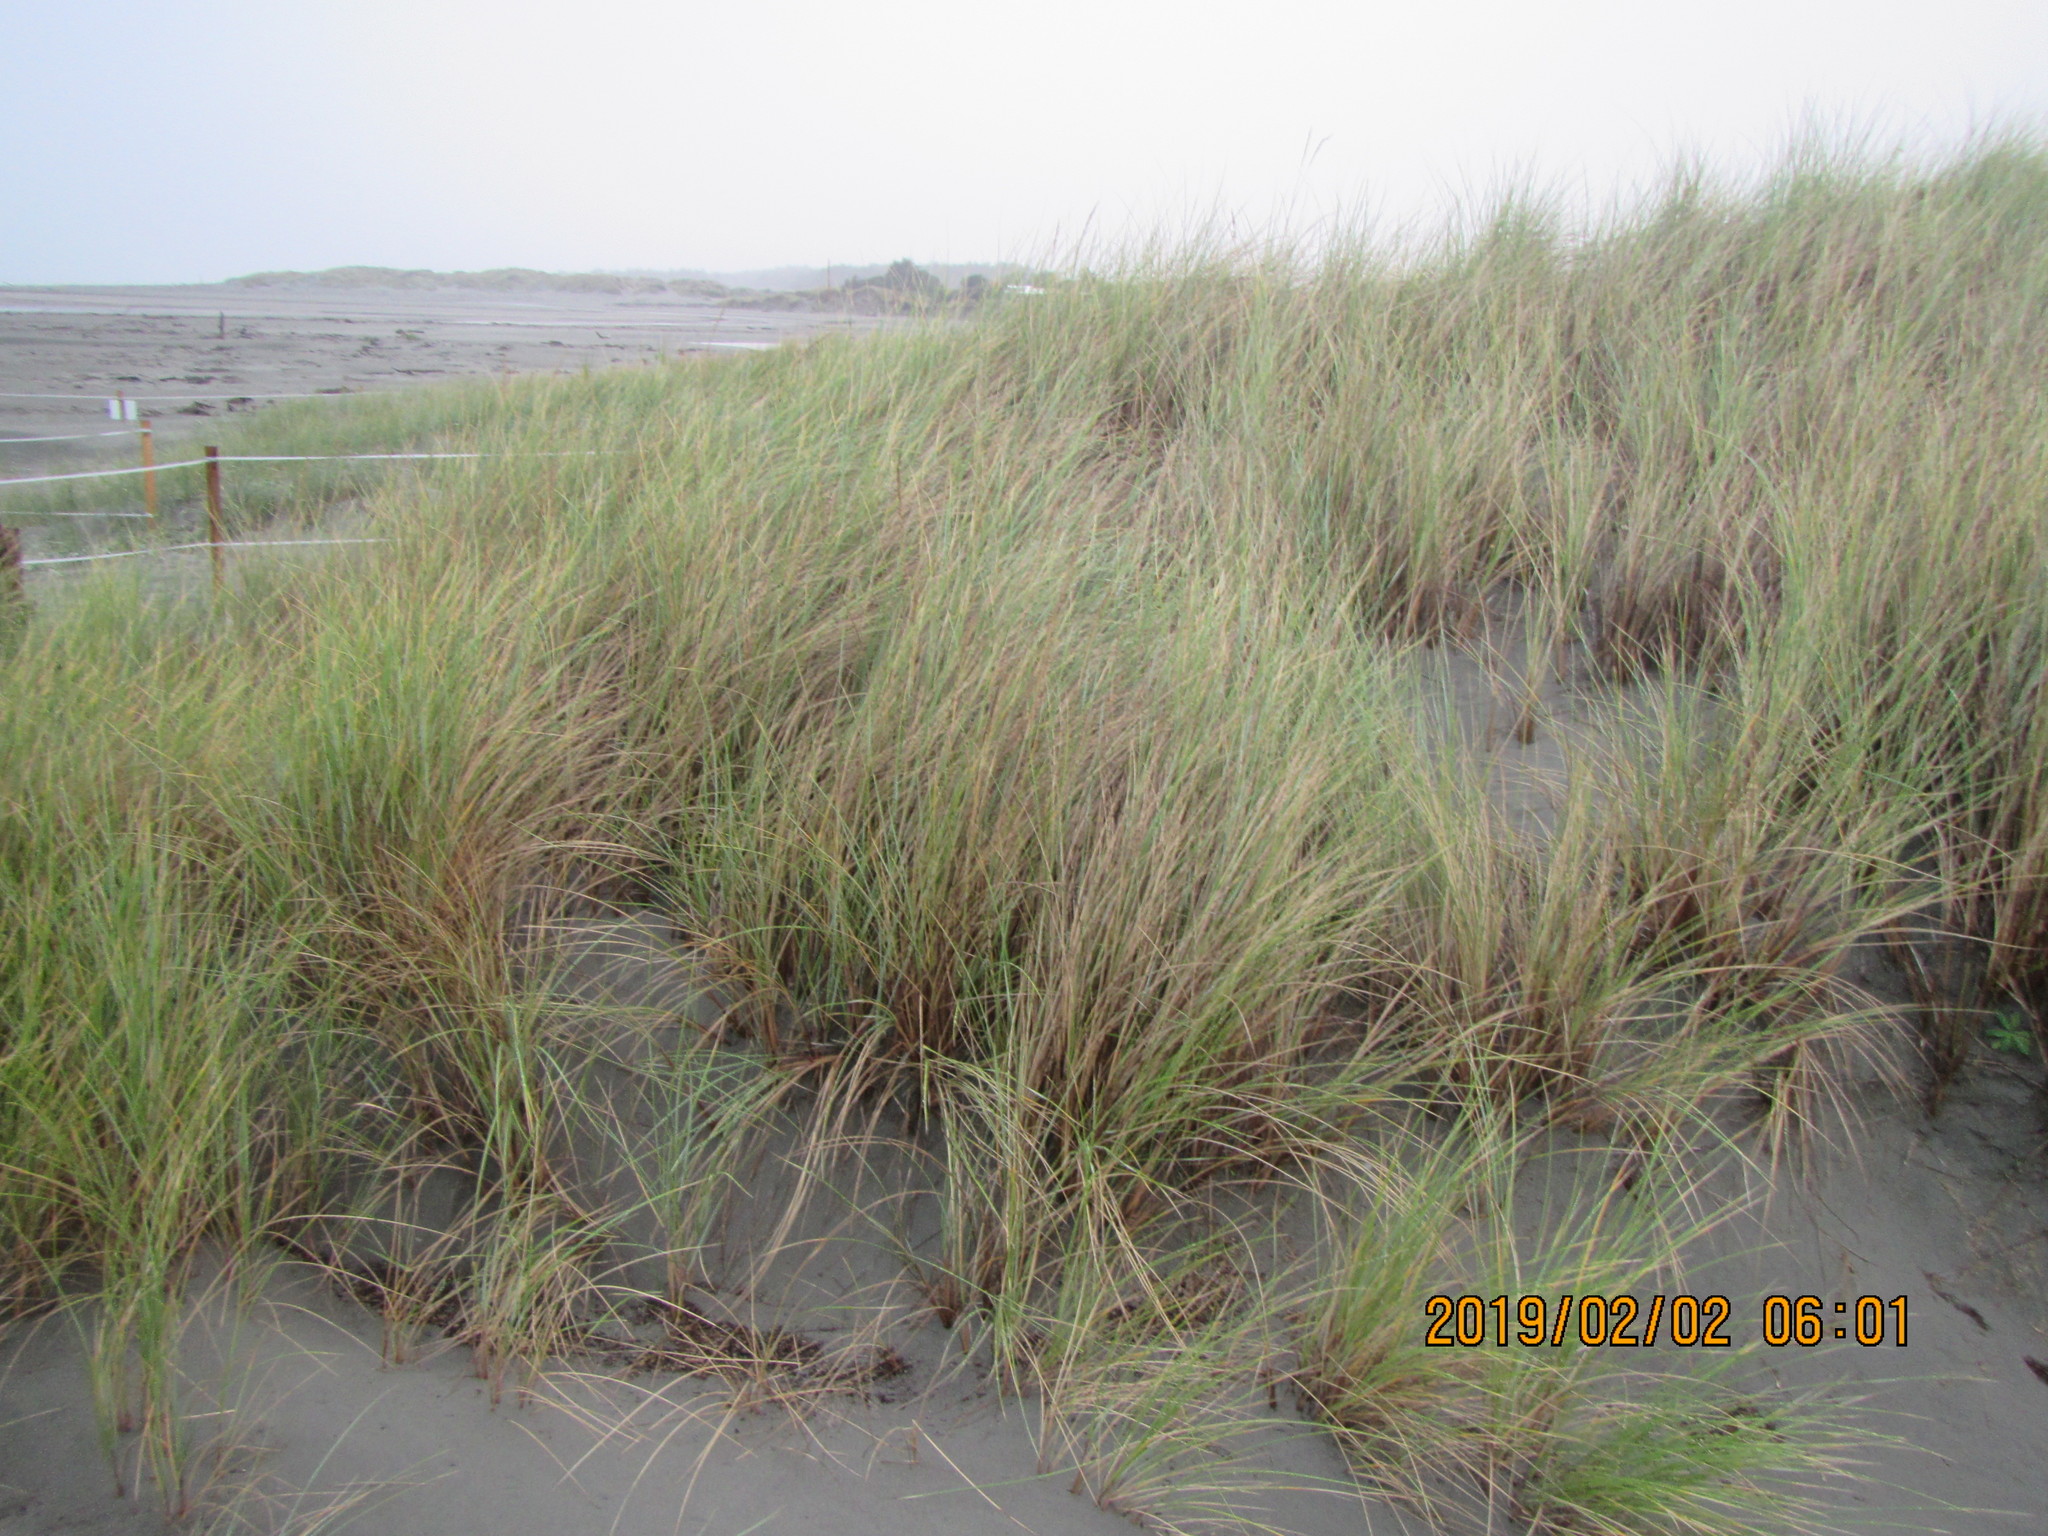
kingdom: Plantae
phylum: Tracheophyta
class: Liliopsida
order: Poales
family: Poaceae
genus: Calamagrostis
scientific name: Calamagrostis arenaria
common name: European beachgrass
